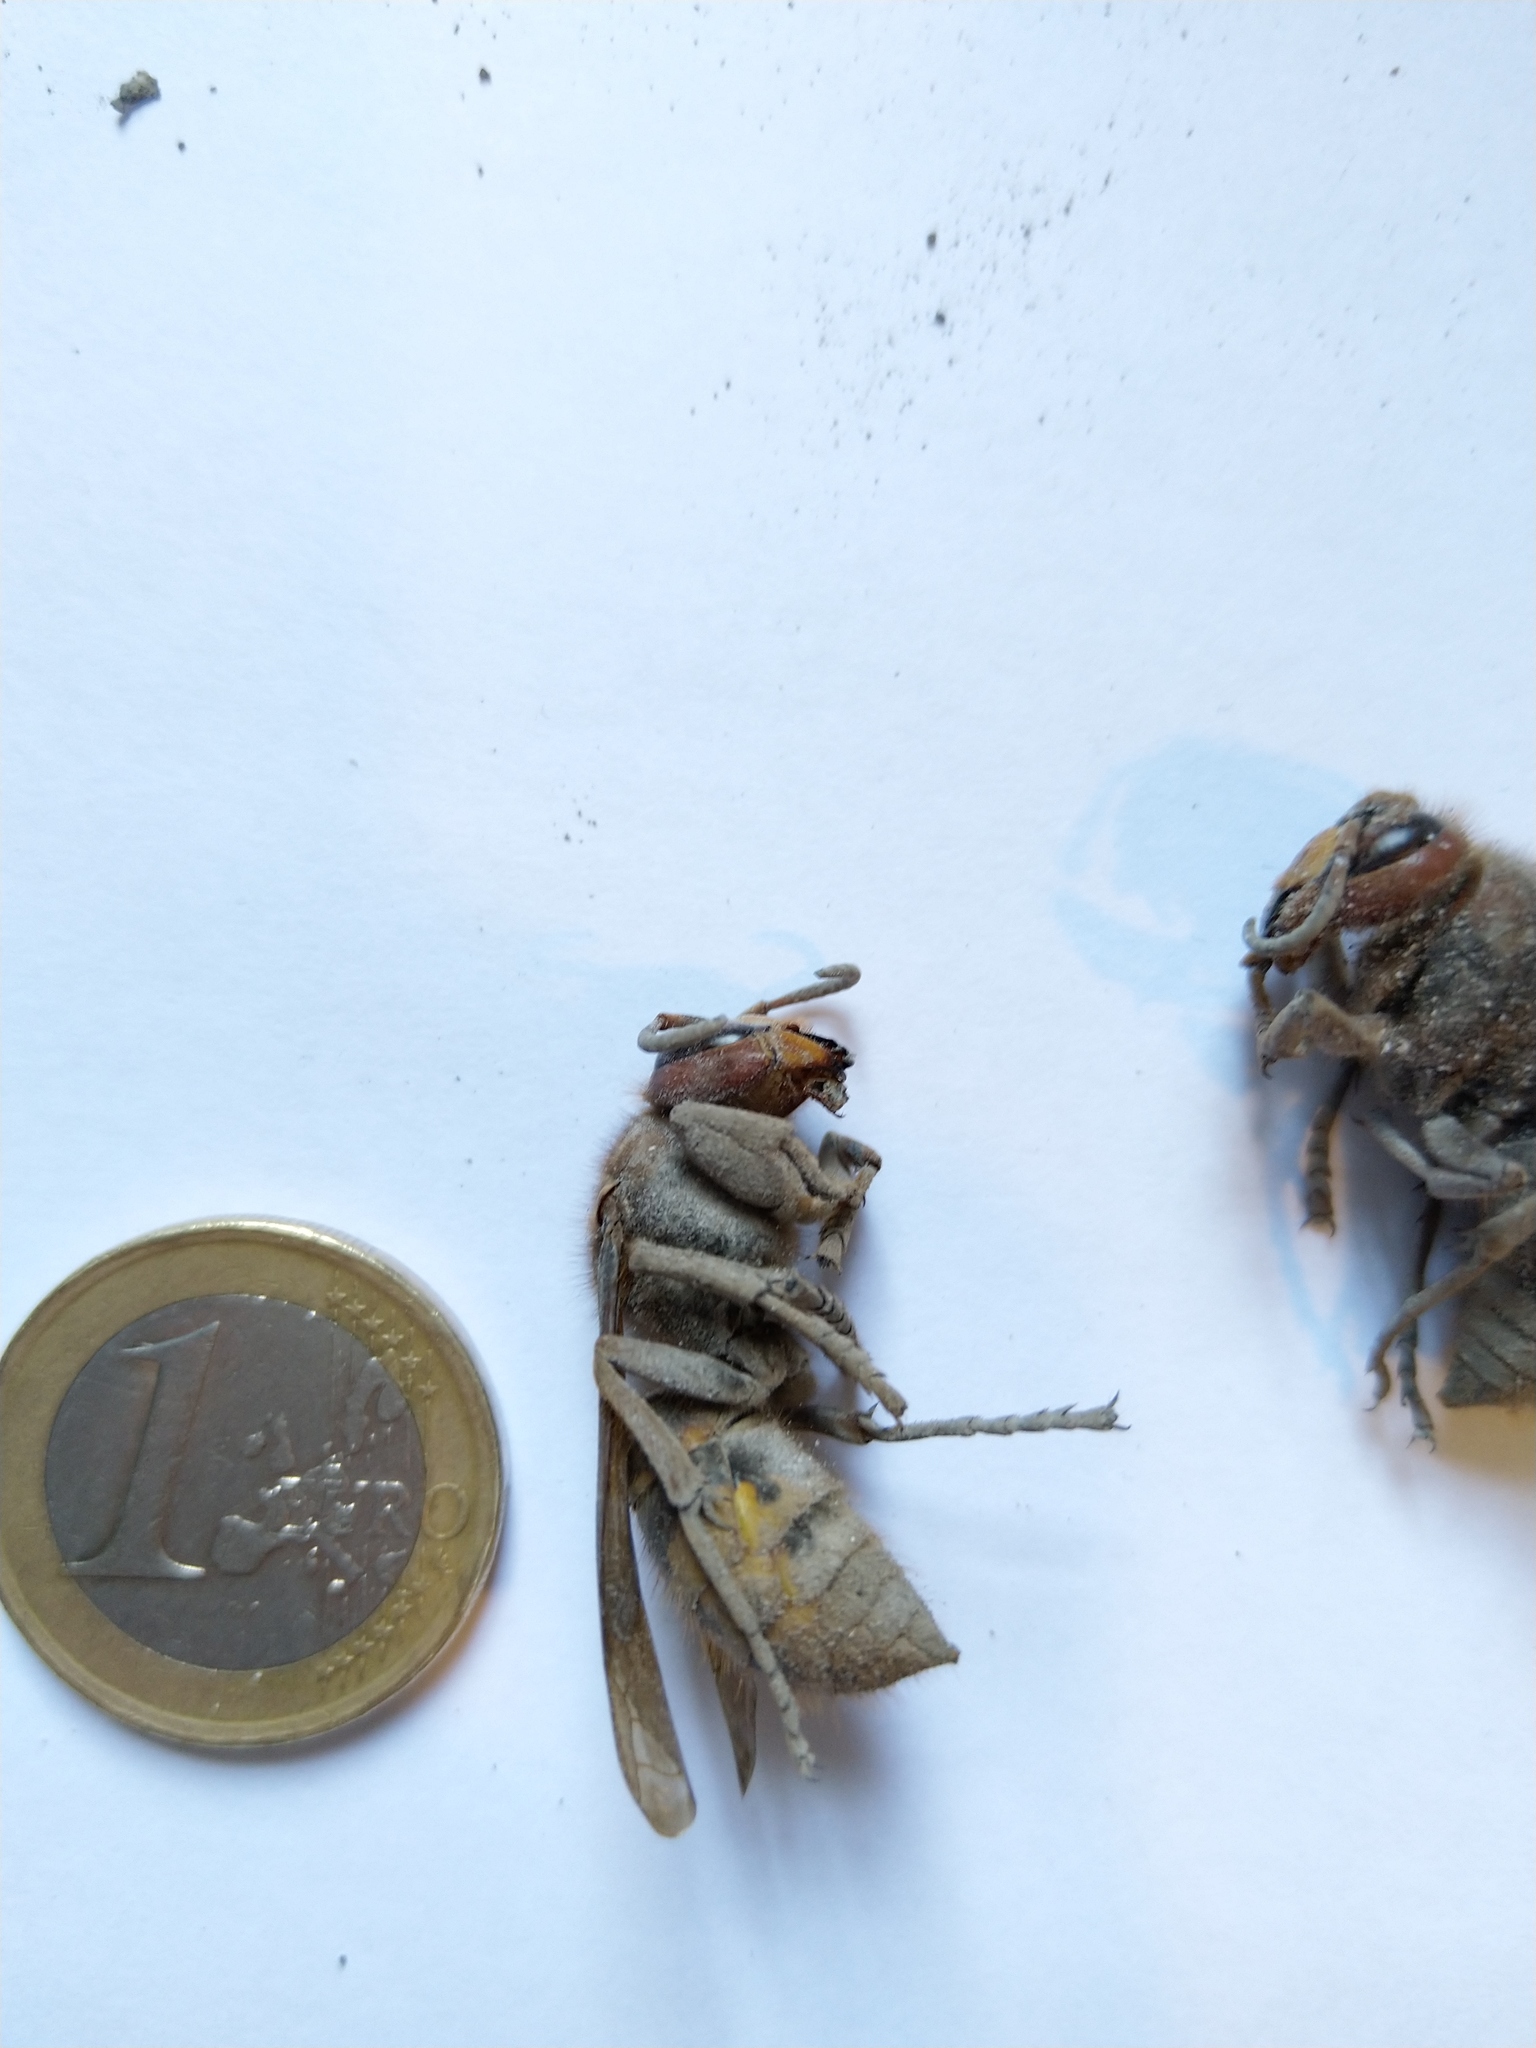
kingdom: Animalia
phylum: Arthropoda
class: Insecta
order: Hymenoptera
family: Vespidae
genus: Vespa
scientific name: Vespa crabro
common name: Hornet
